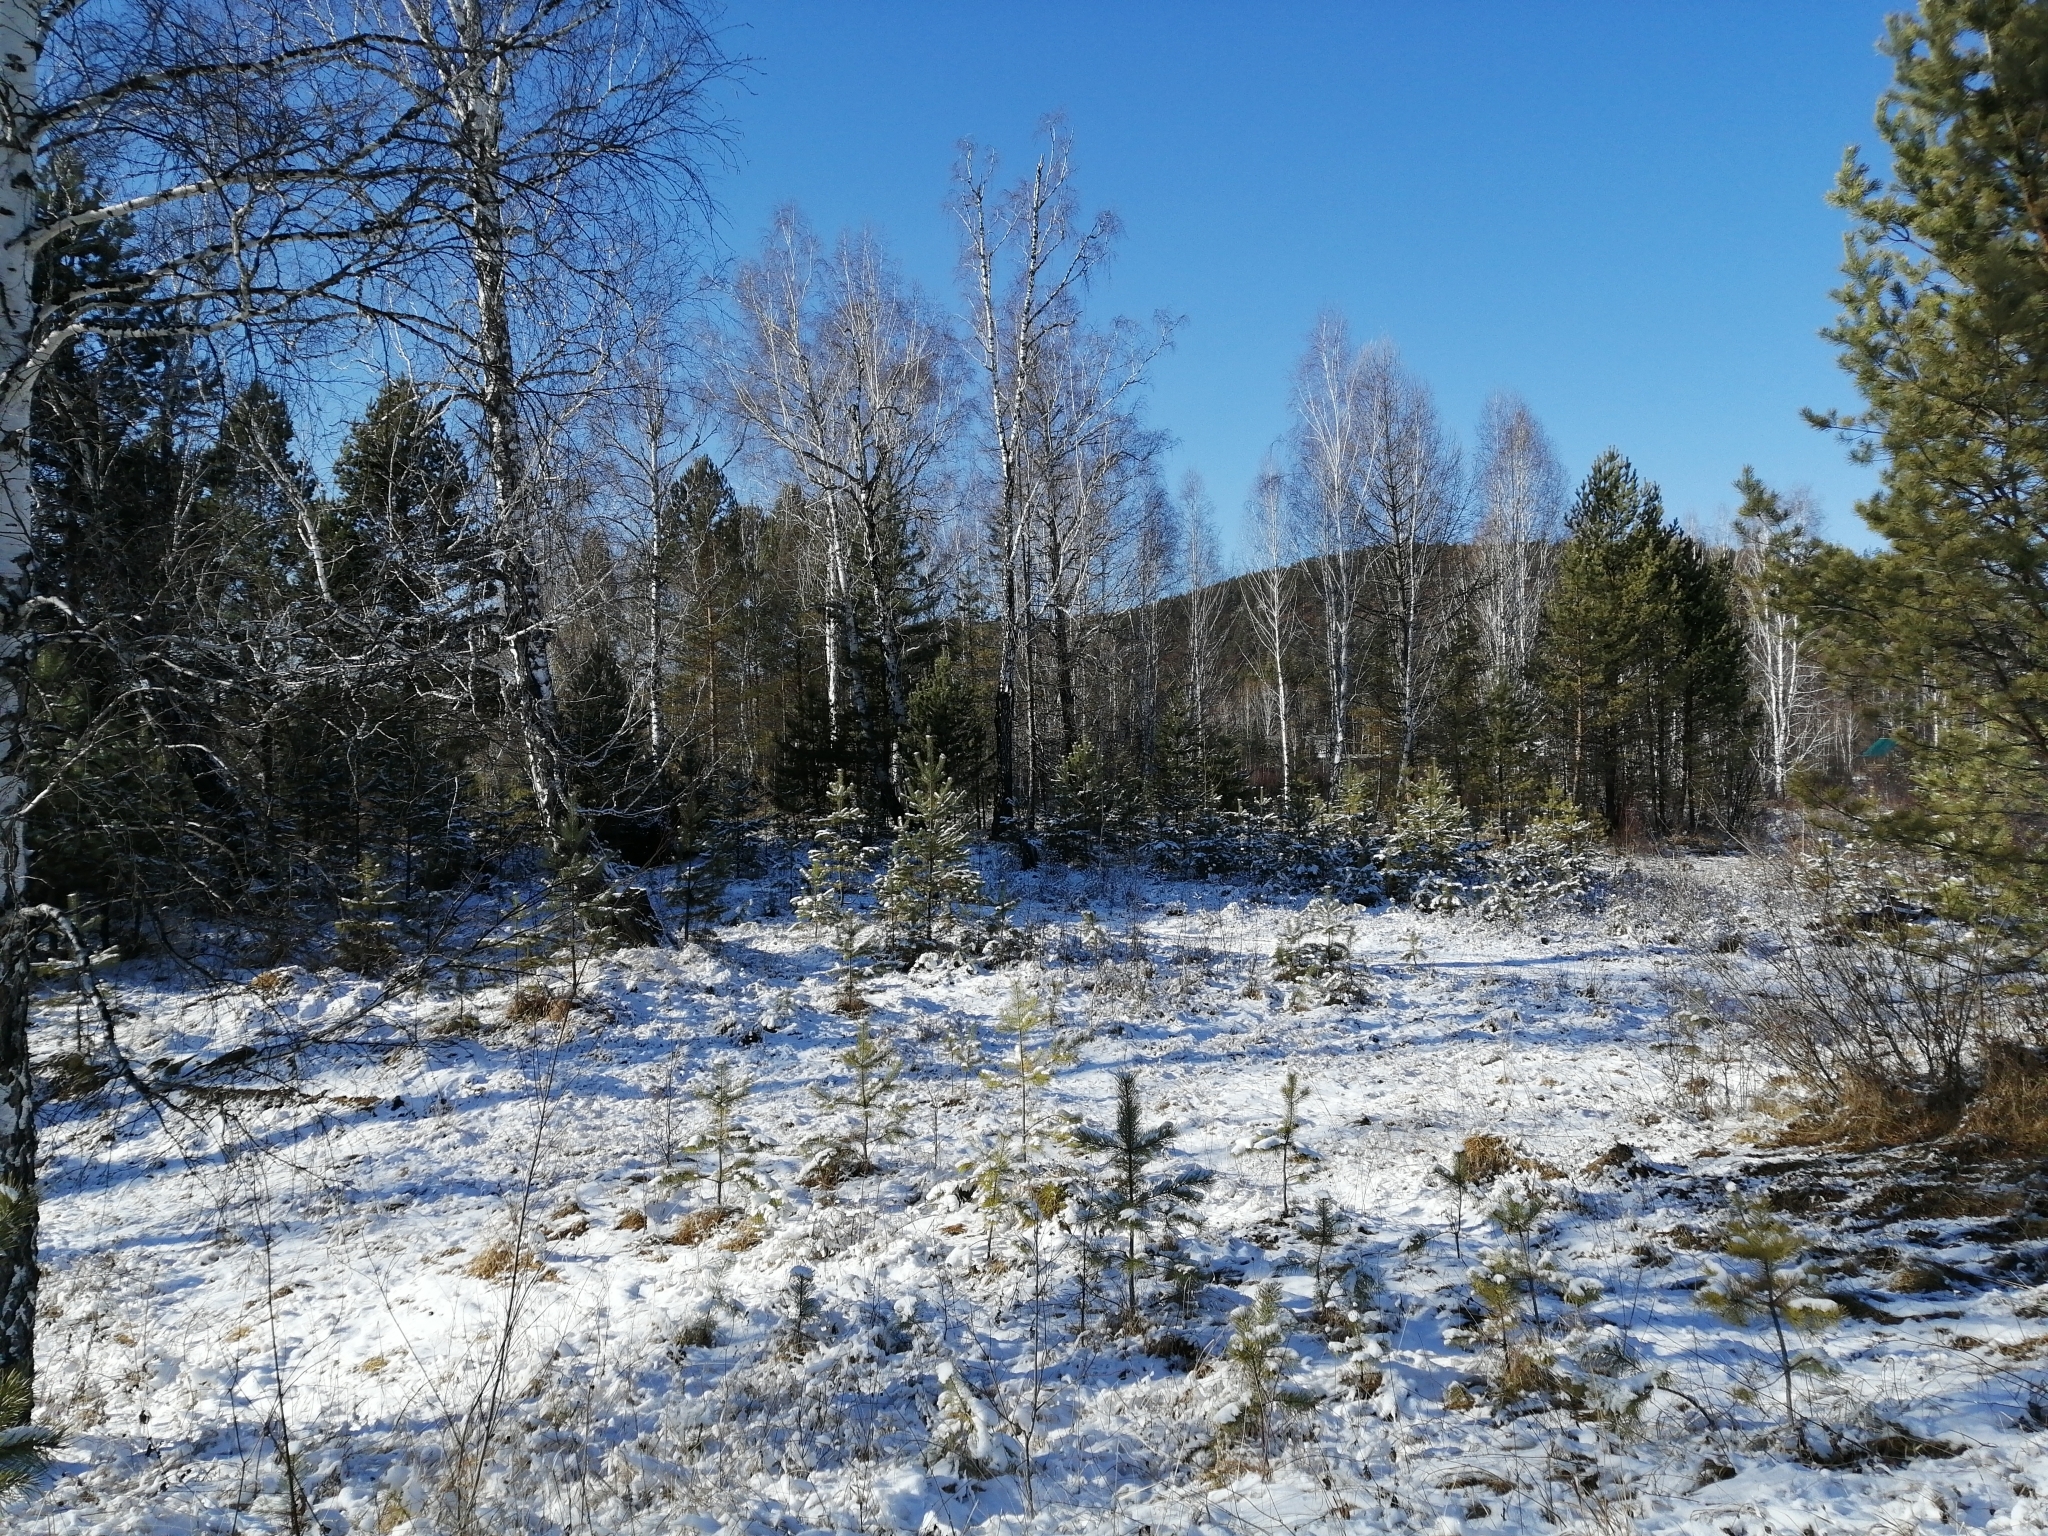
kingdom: Plantae
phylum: Tracheophyta
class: Pinopsida
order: Pinales
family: Pinaceae
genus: Pinus
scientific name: Pinus sylvestris
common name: Scots pine
